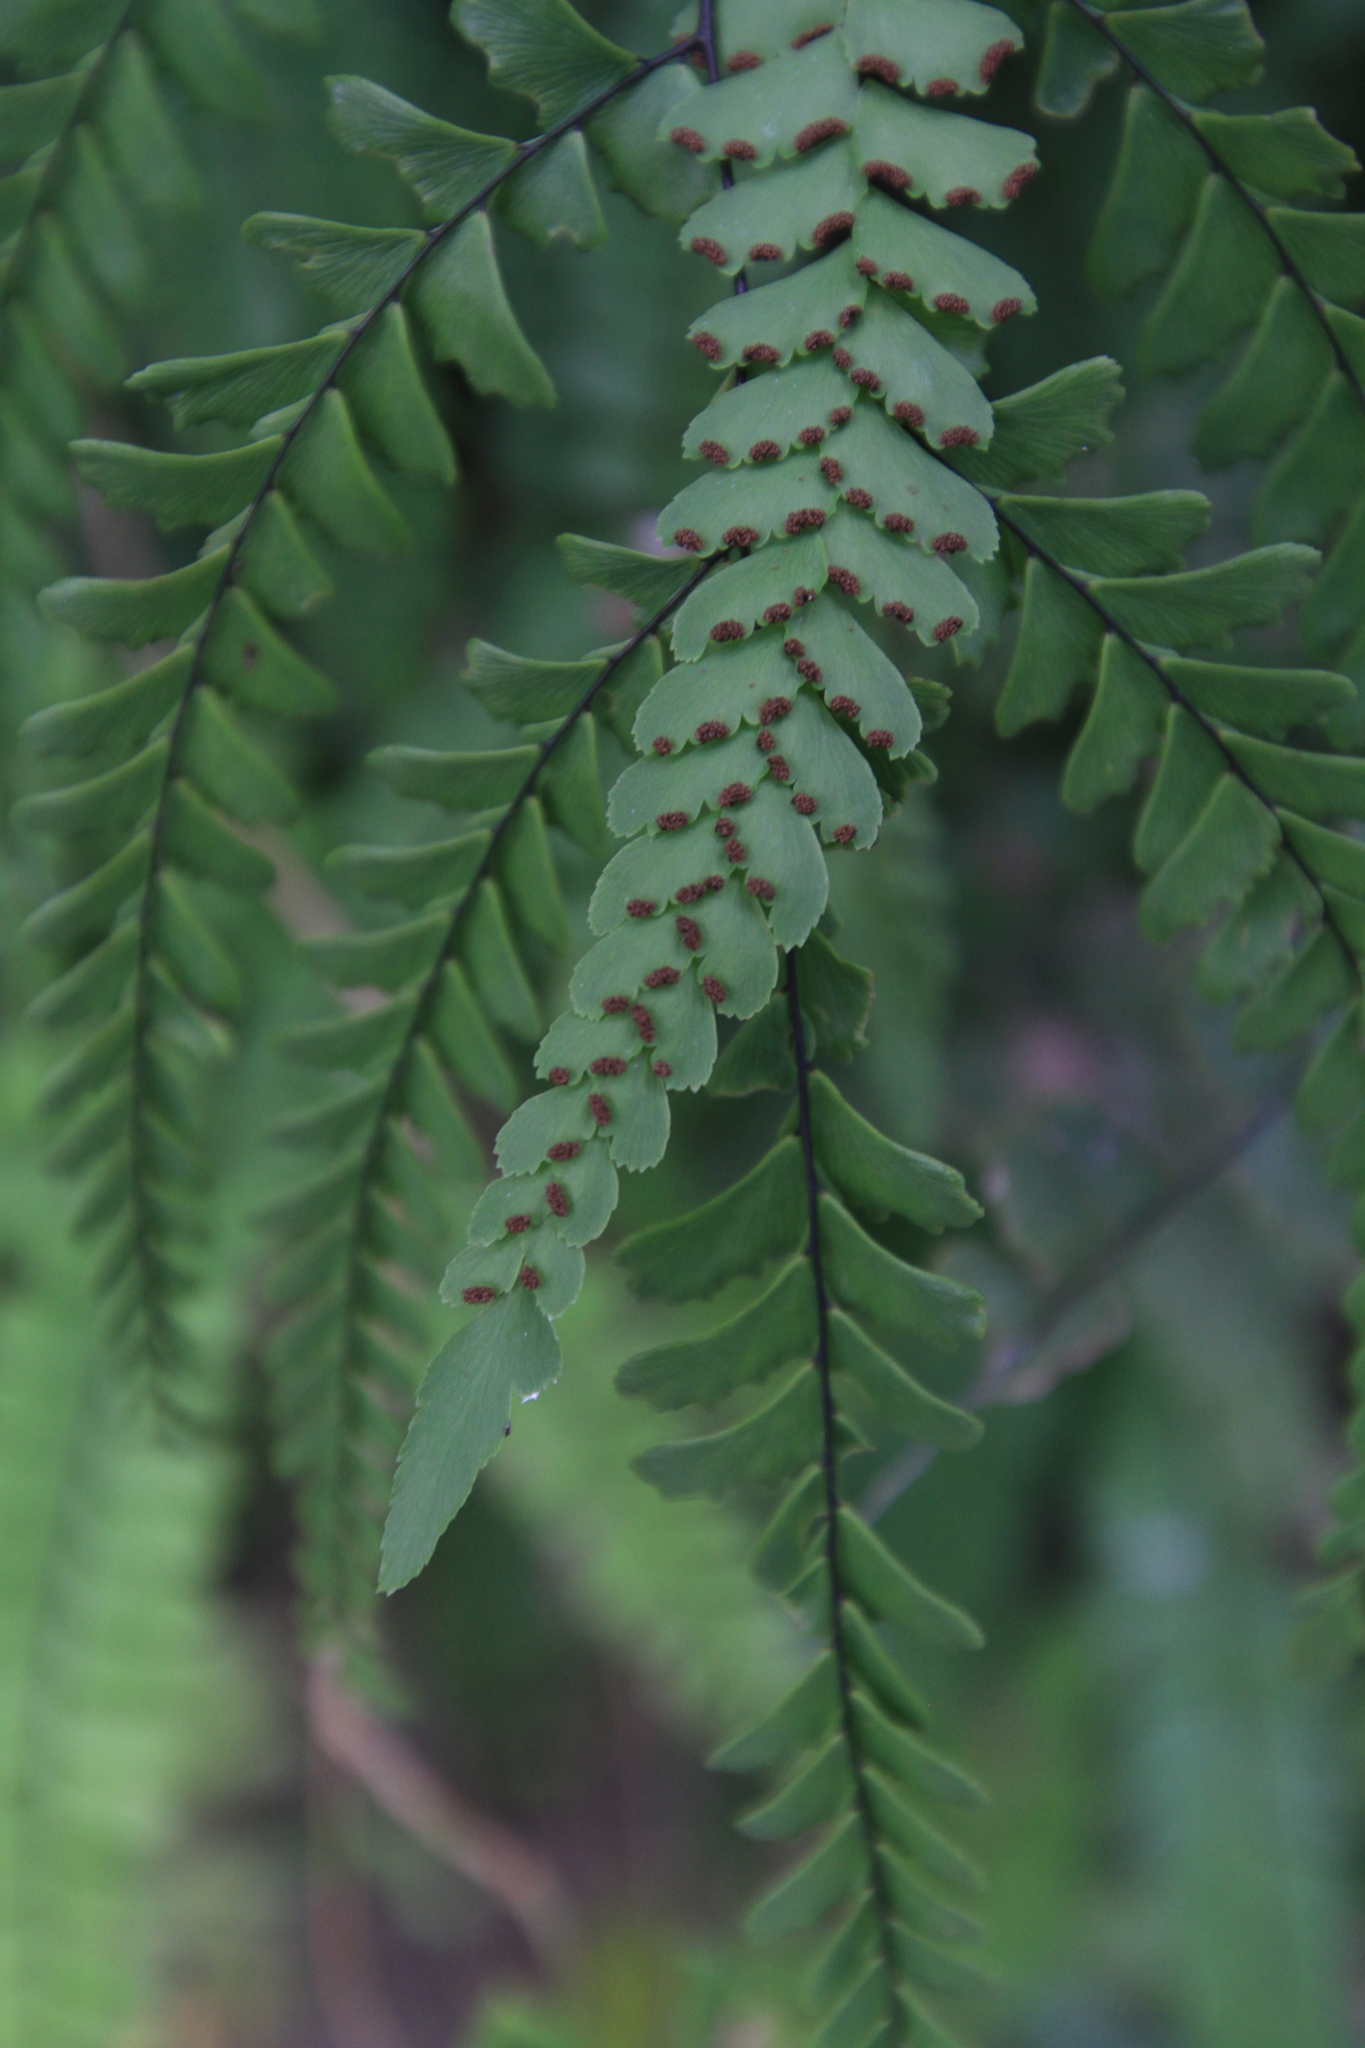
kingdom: Plantae
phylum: Tracheophyta
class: Polypodiopsida
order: Polypodiales
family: Pteridaceae
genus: Adiantum
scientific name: Adiantum melanoleucum
